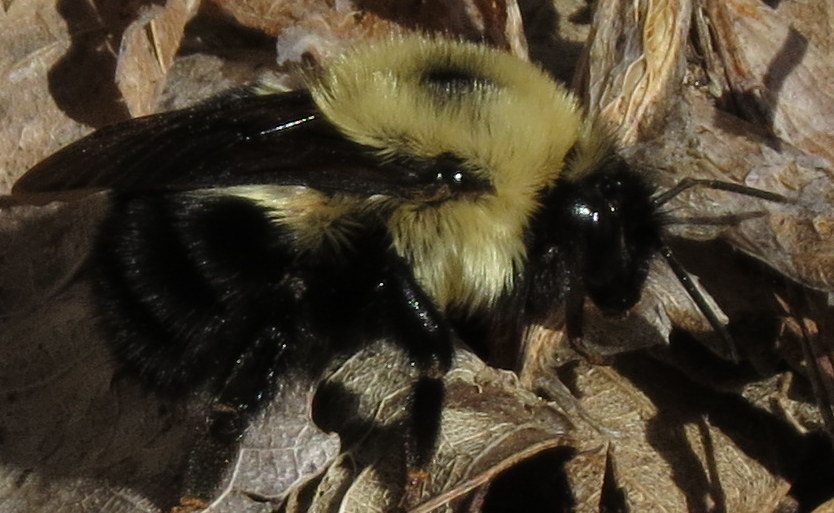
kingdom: Animalia
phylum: Arthropoda
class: Insecta
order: Hymenoptera
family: Apidae
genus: Bombus
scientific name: Bombus bimaculatus
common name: Two-spotted bumble bee
